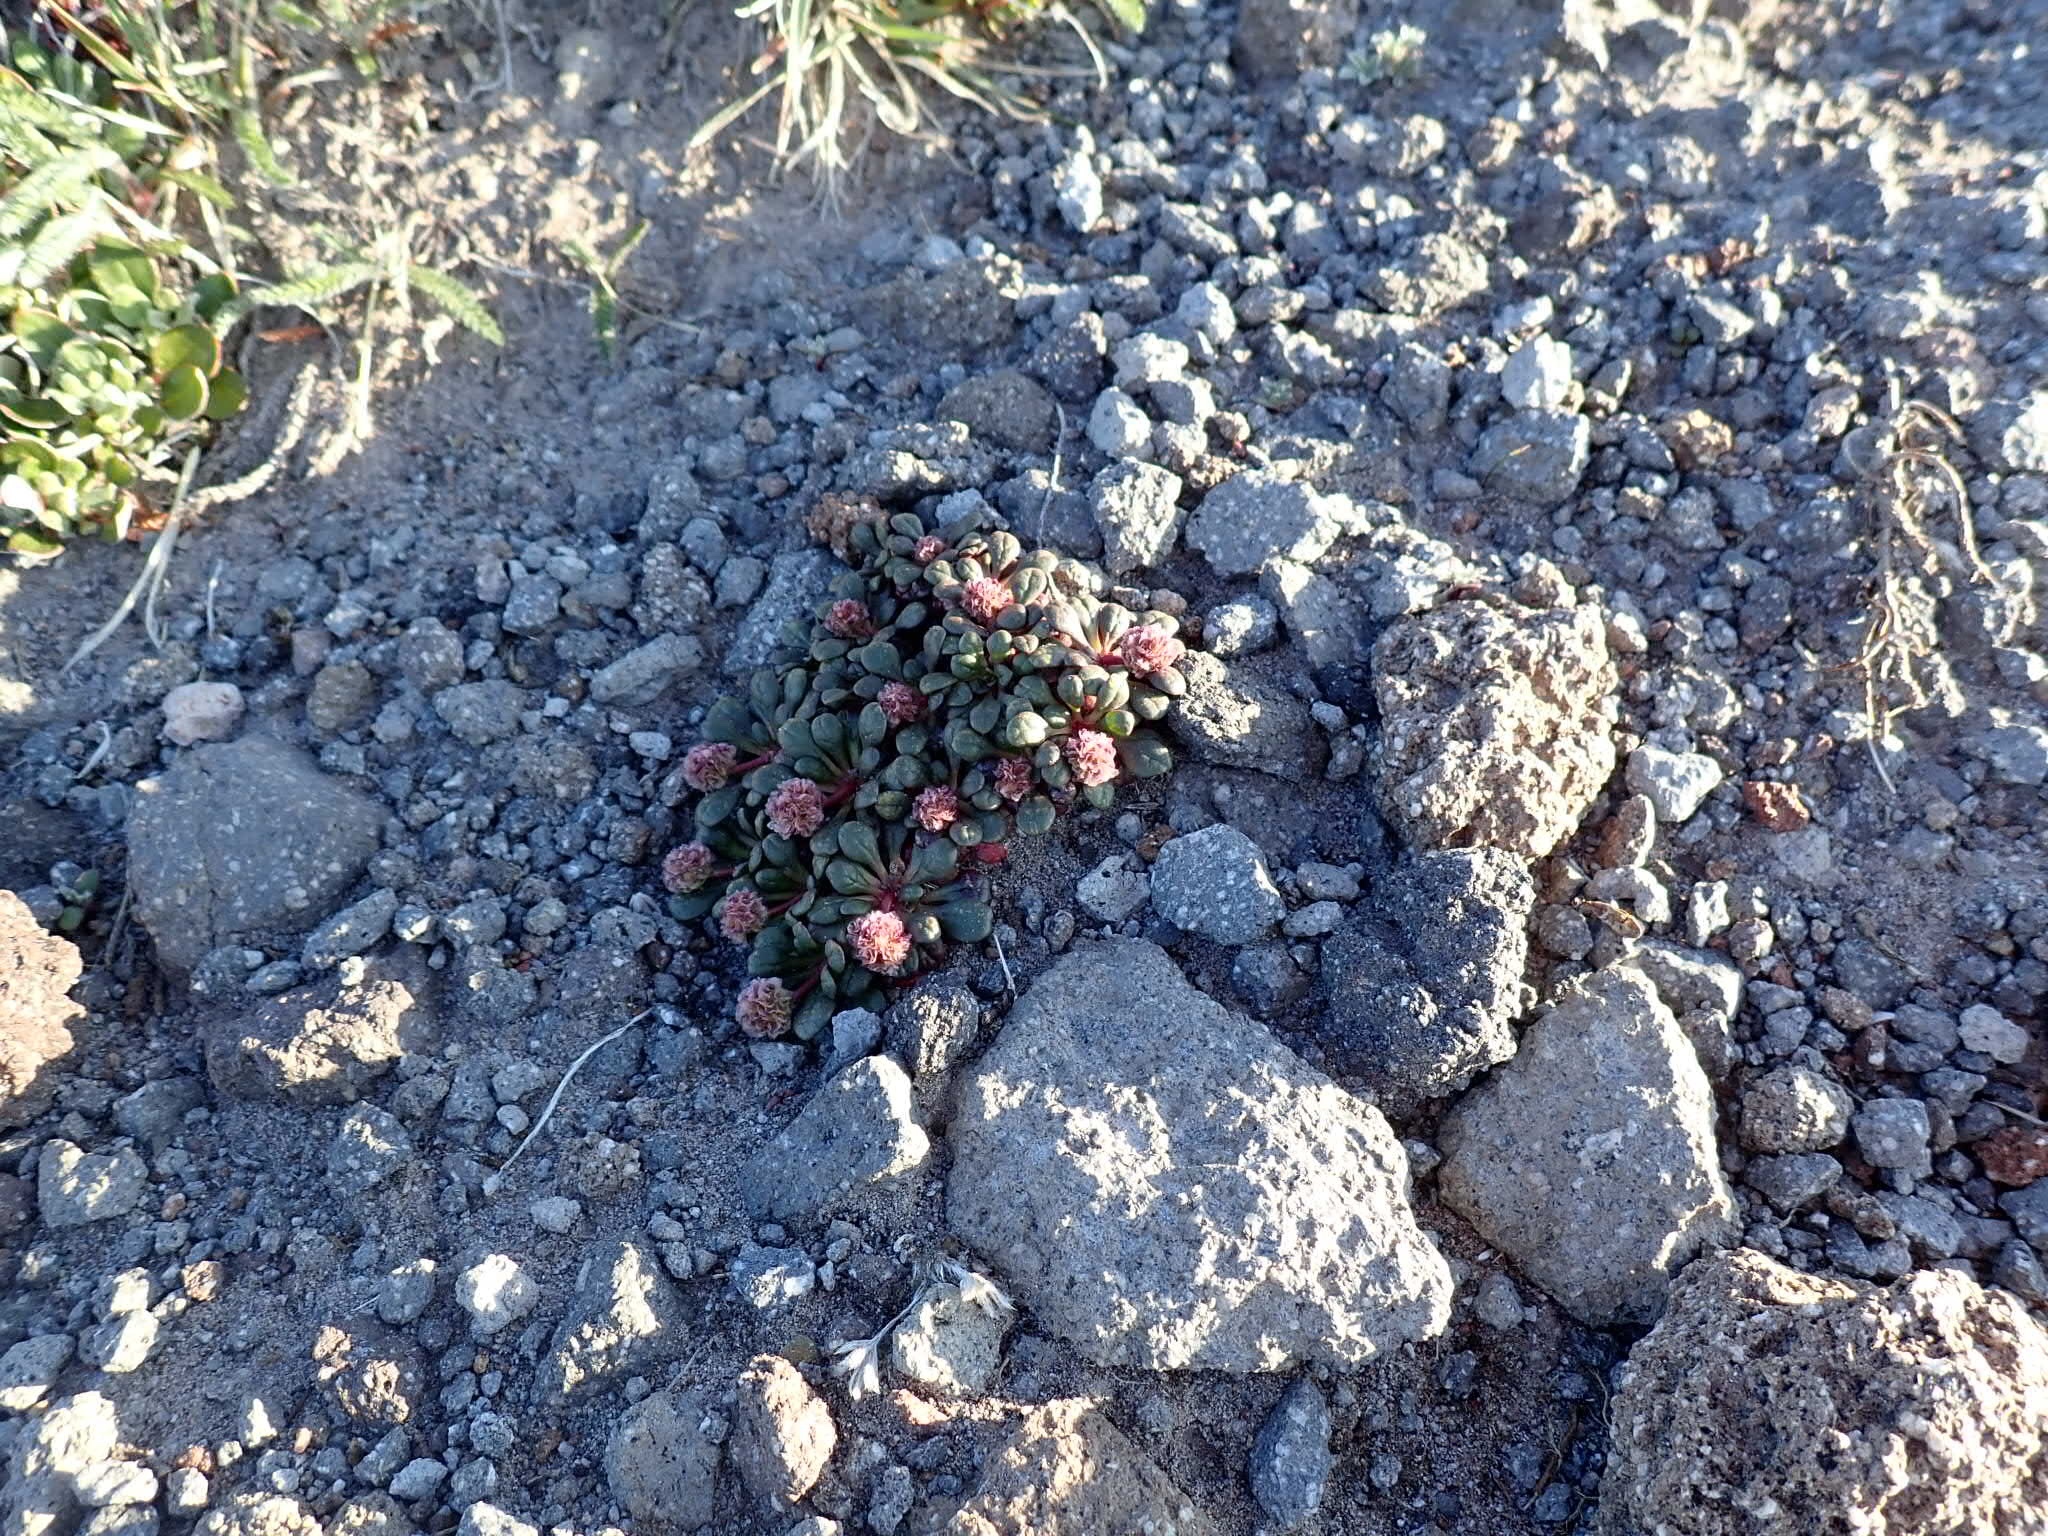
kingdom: Plantae
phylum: Tracheophyta
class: Magnoliopsida
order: Caryophyllales
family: Montiaceae
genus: Calyptridium
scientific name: Calyptridium umbellatum
